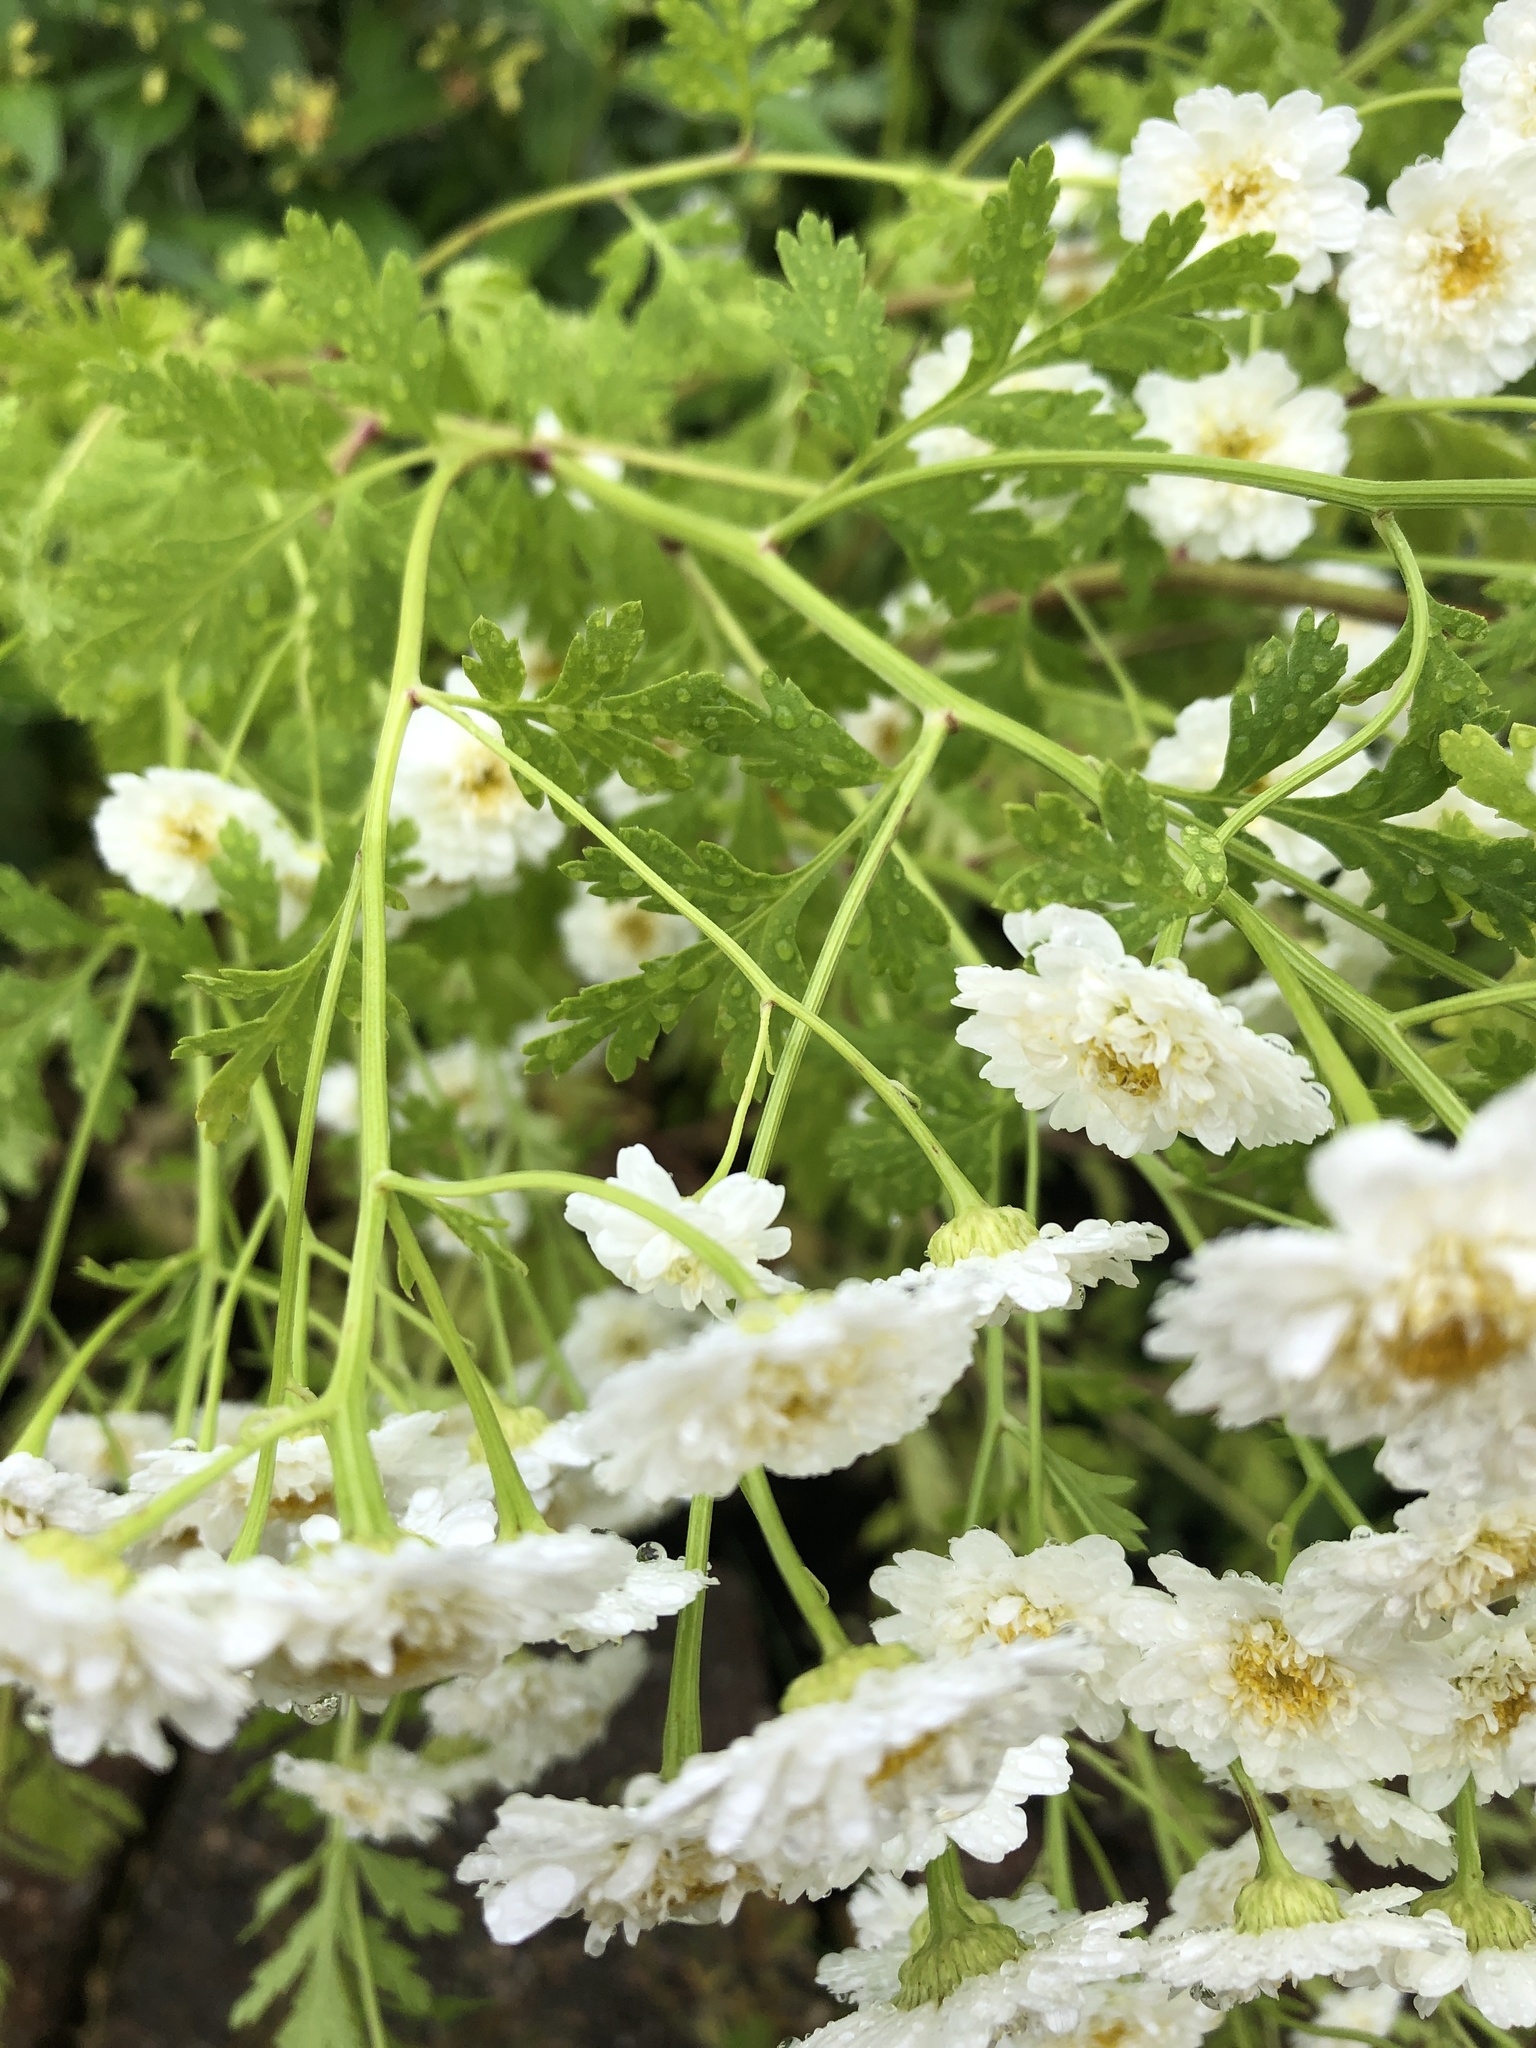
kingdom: Plantae
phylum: Tracheophyta
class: Magnoliopsida
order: Asterales
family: Asteraceae
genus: Tanacetum
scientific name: Tanacetum parthenium
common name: Feverfew
